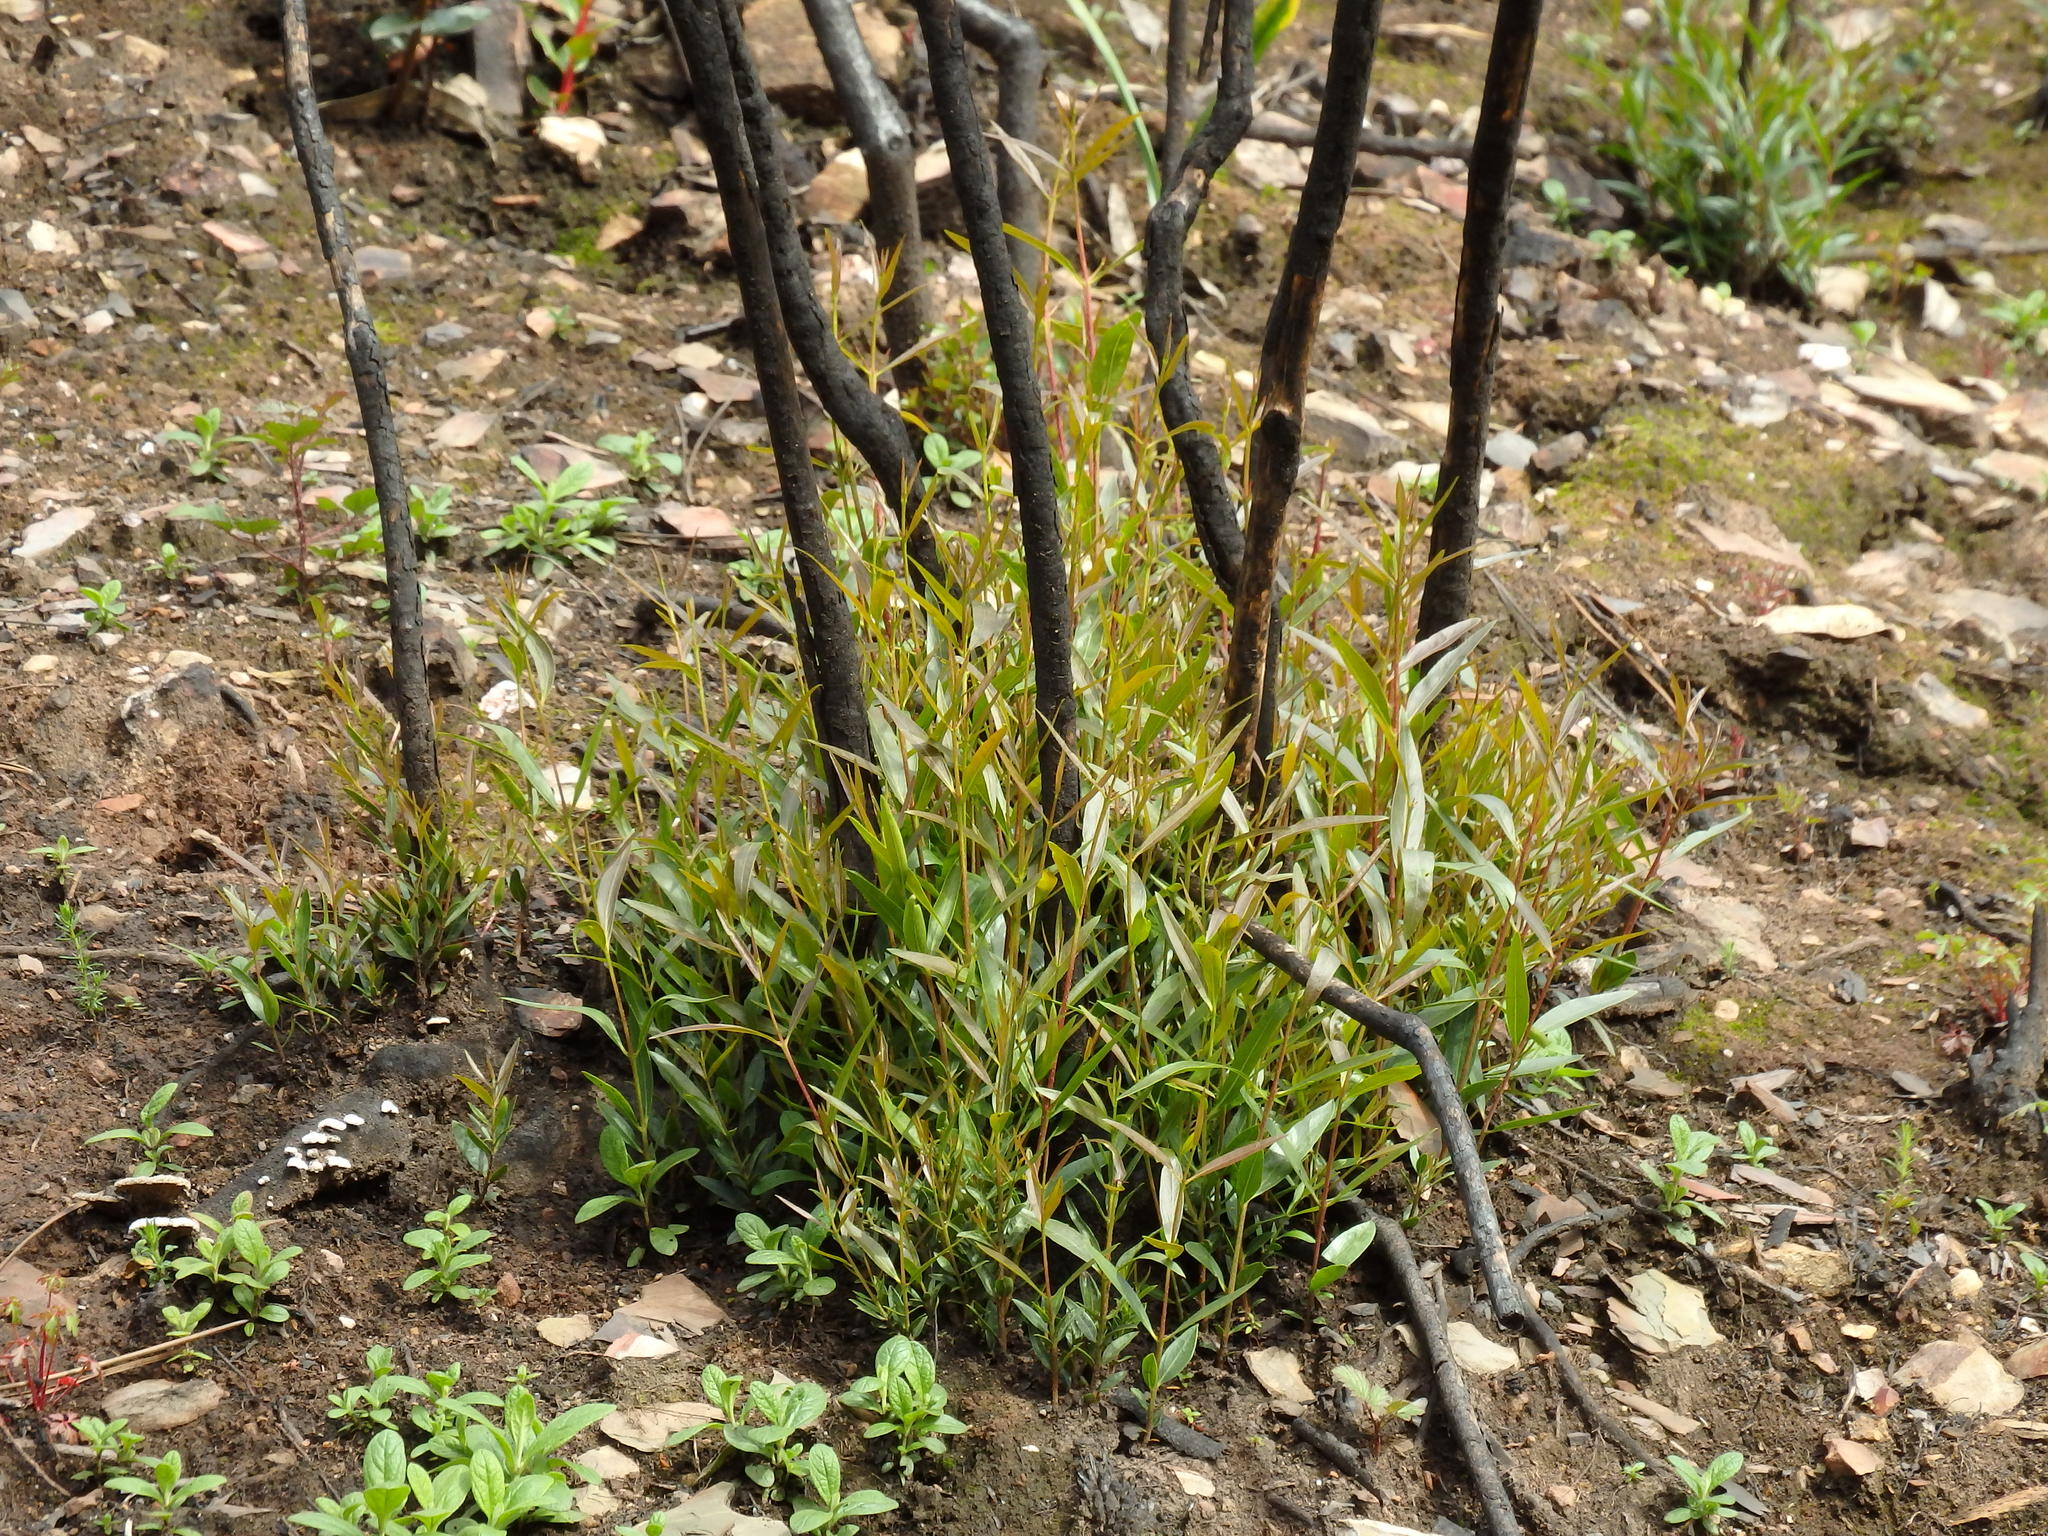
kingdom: Plantae
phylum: Tracheophyta
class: Magnoliopsida
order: Lamiales
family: Oleaceae
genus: Phillyrea
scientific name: Phillyrea angustifolia
